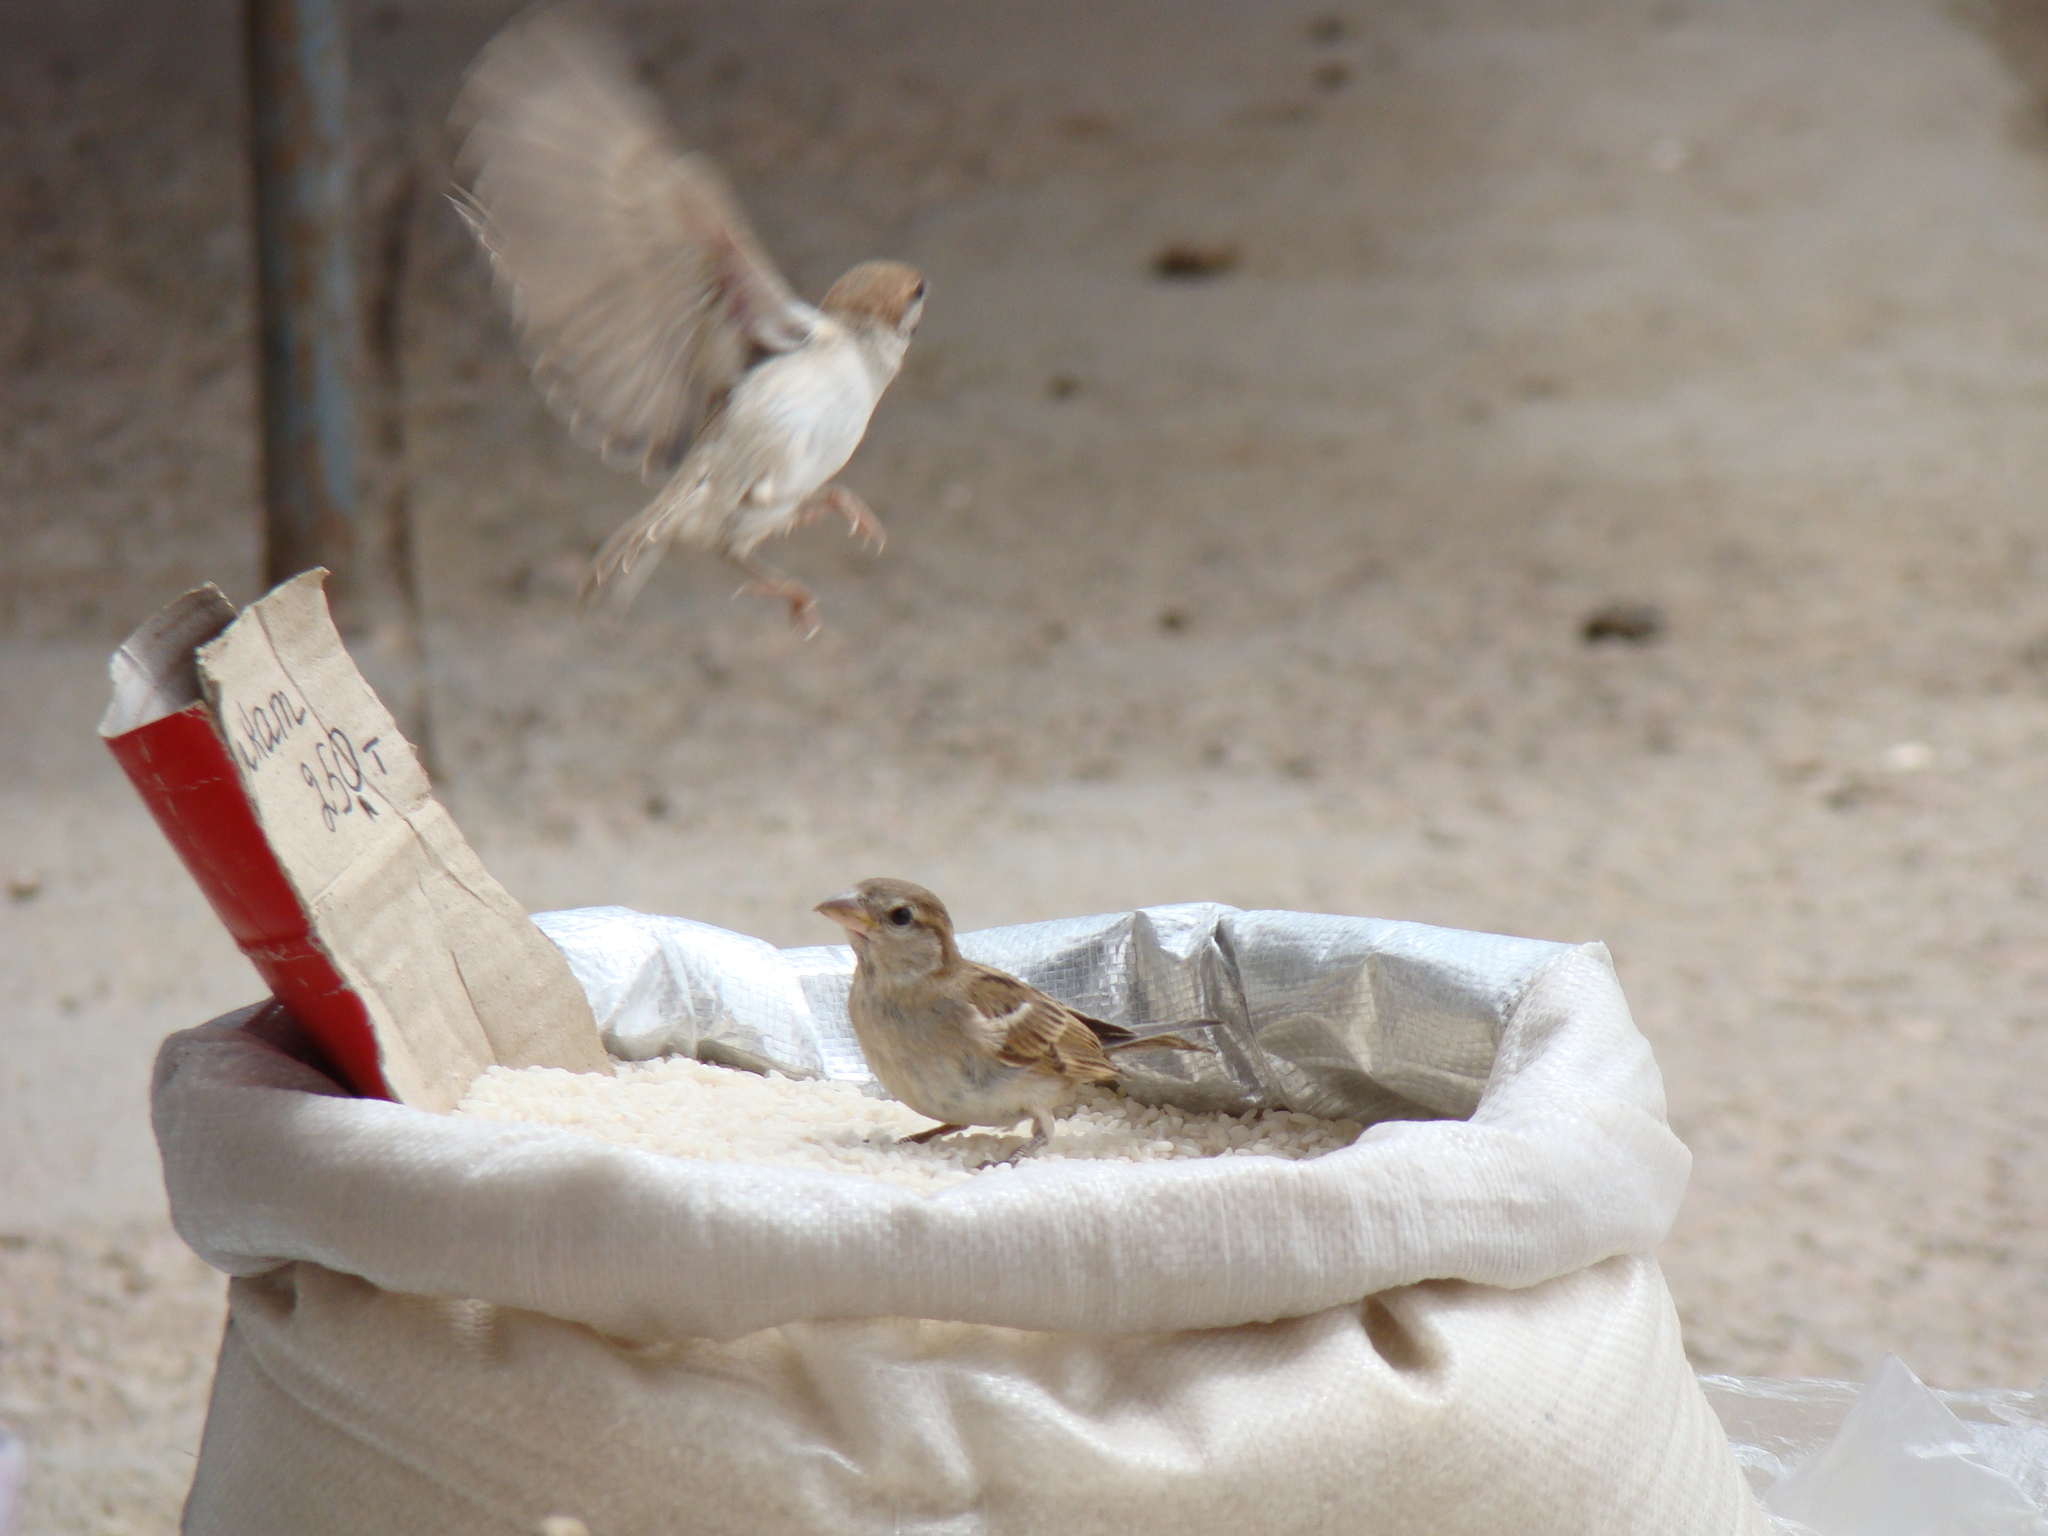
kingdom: Animalia
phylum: Chordata
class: Aves
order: Passeriformes
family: Passeridae
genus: Passer
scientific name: Passer domesticus
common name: House sparrow
